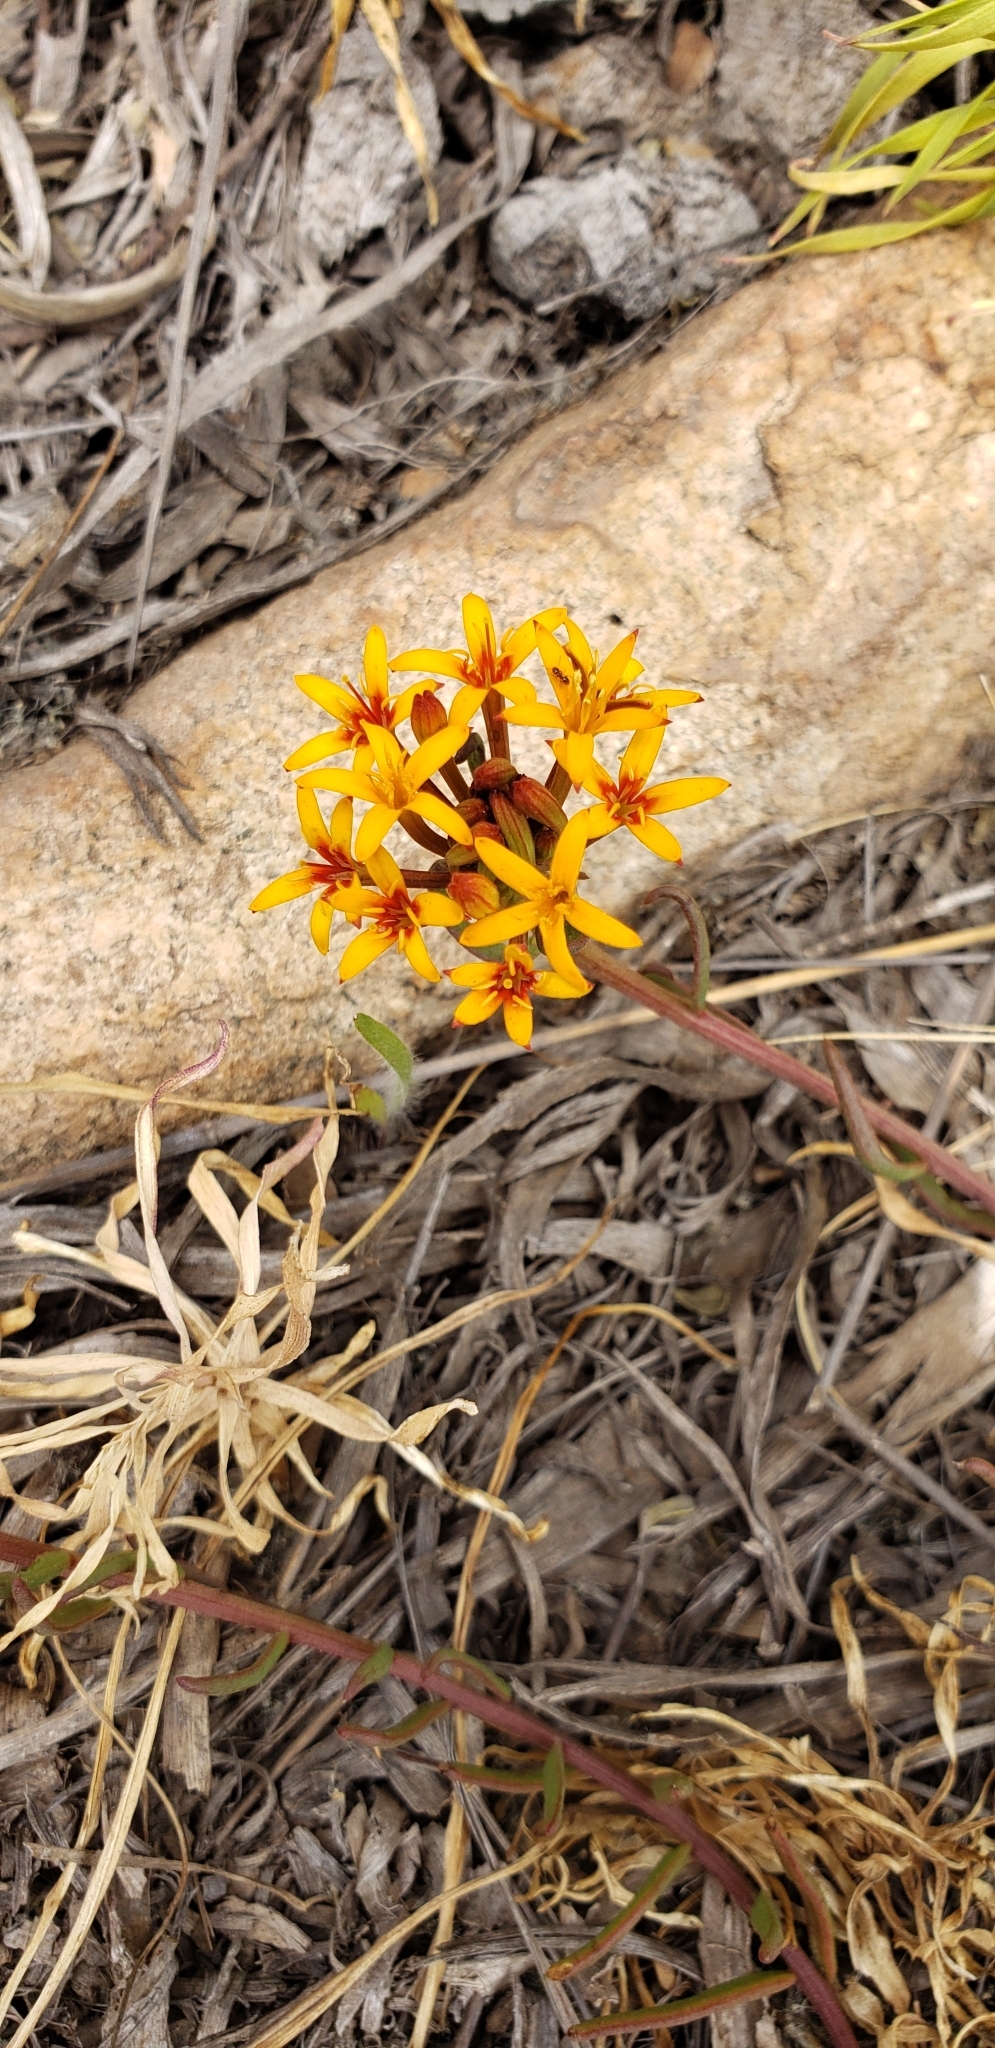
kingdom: Plantae
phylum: Tracheophyta
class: Magnoliopsida
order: Santalales
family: Schoepfiaceae
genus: Quinchamalium
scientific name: Quinchamalium chilense
